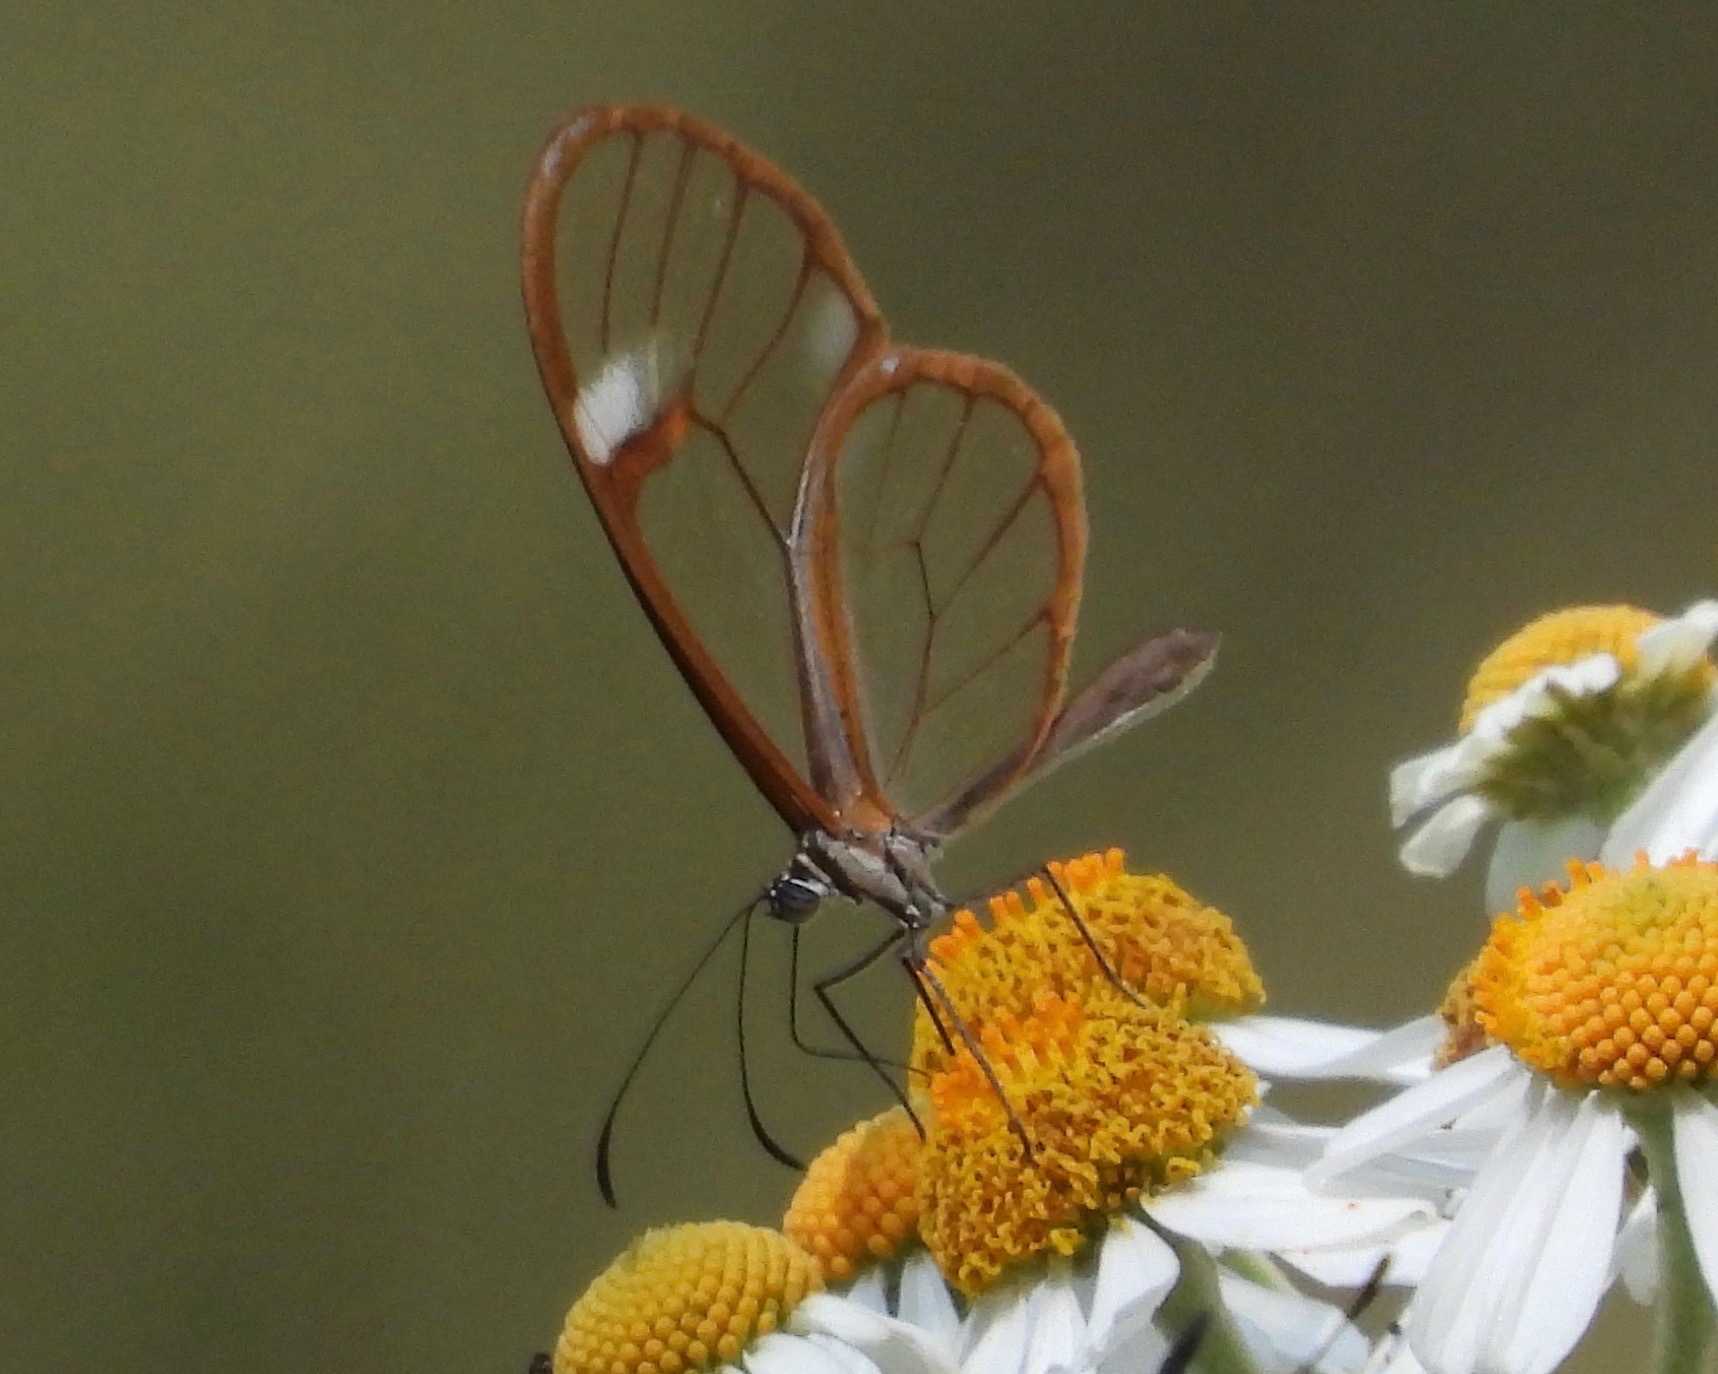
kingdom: Animalia
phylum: Arthropoda
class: Insecta
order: Lepidoptera
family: Nymphalidae
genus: Pteronymia
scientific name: Pteronymia artena
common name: Artena clearwing
